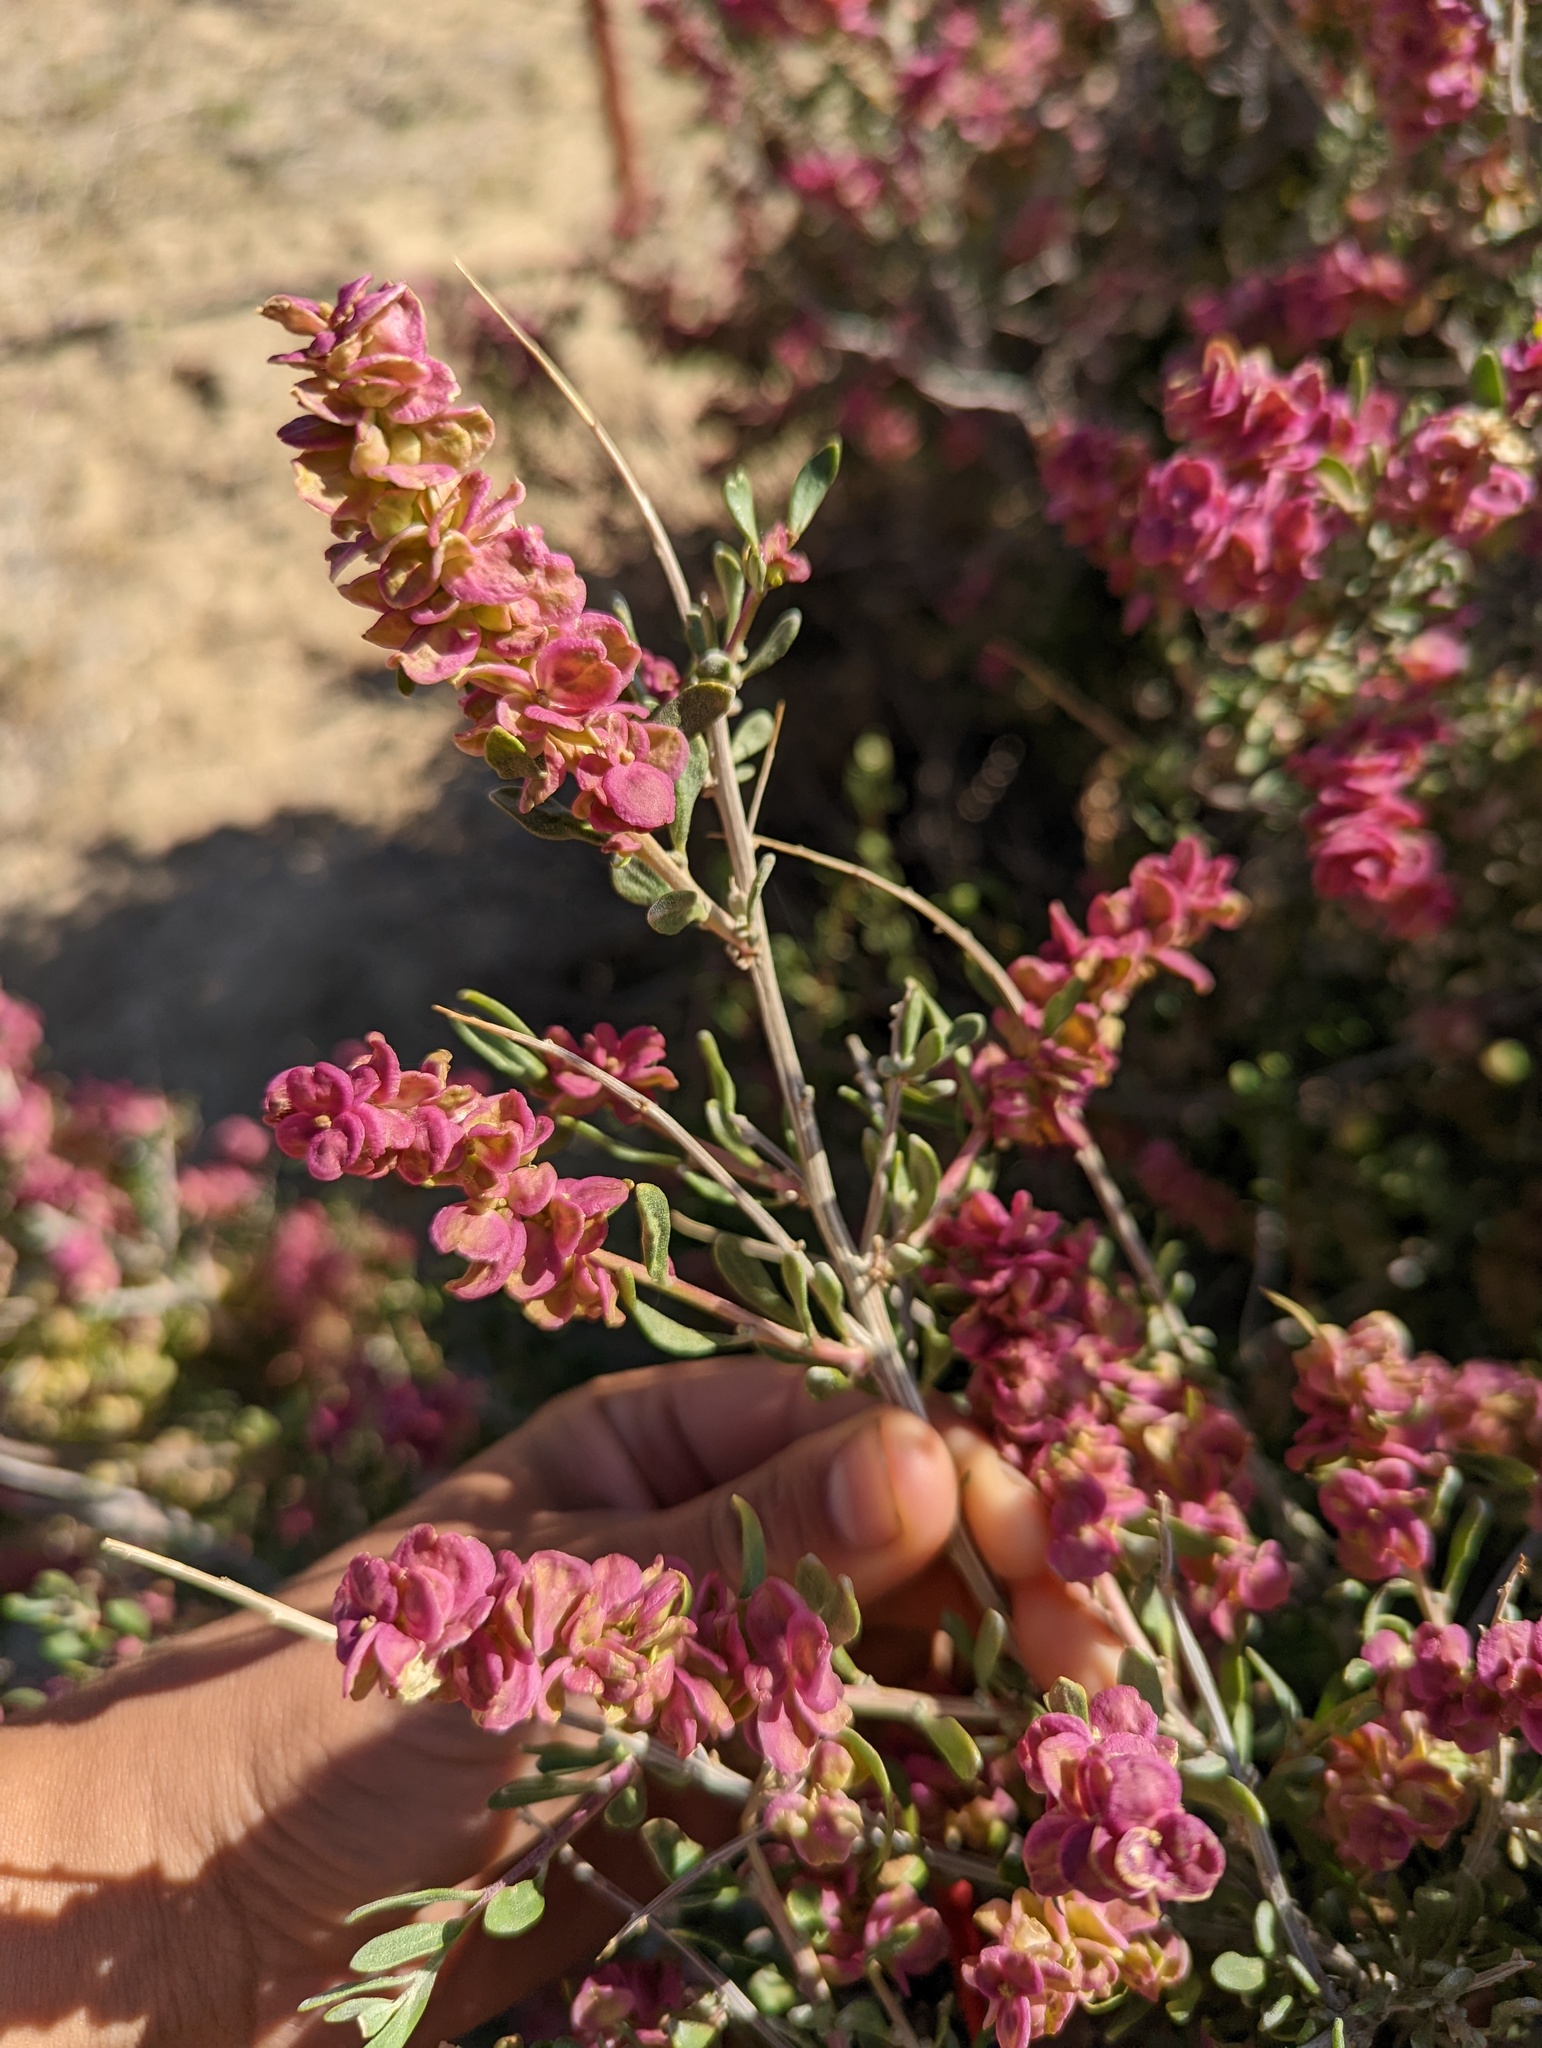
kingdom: Plantae
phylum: Tracheophyta
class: Magnoliopsida
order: Caryophyllales
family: Amaranthaceae
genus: Grayia
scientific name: Grayia spinosa
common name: Spiny hopsage
